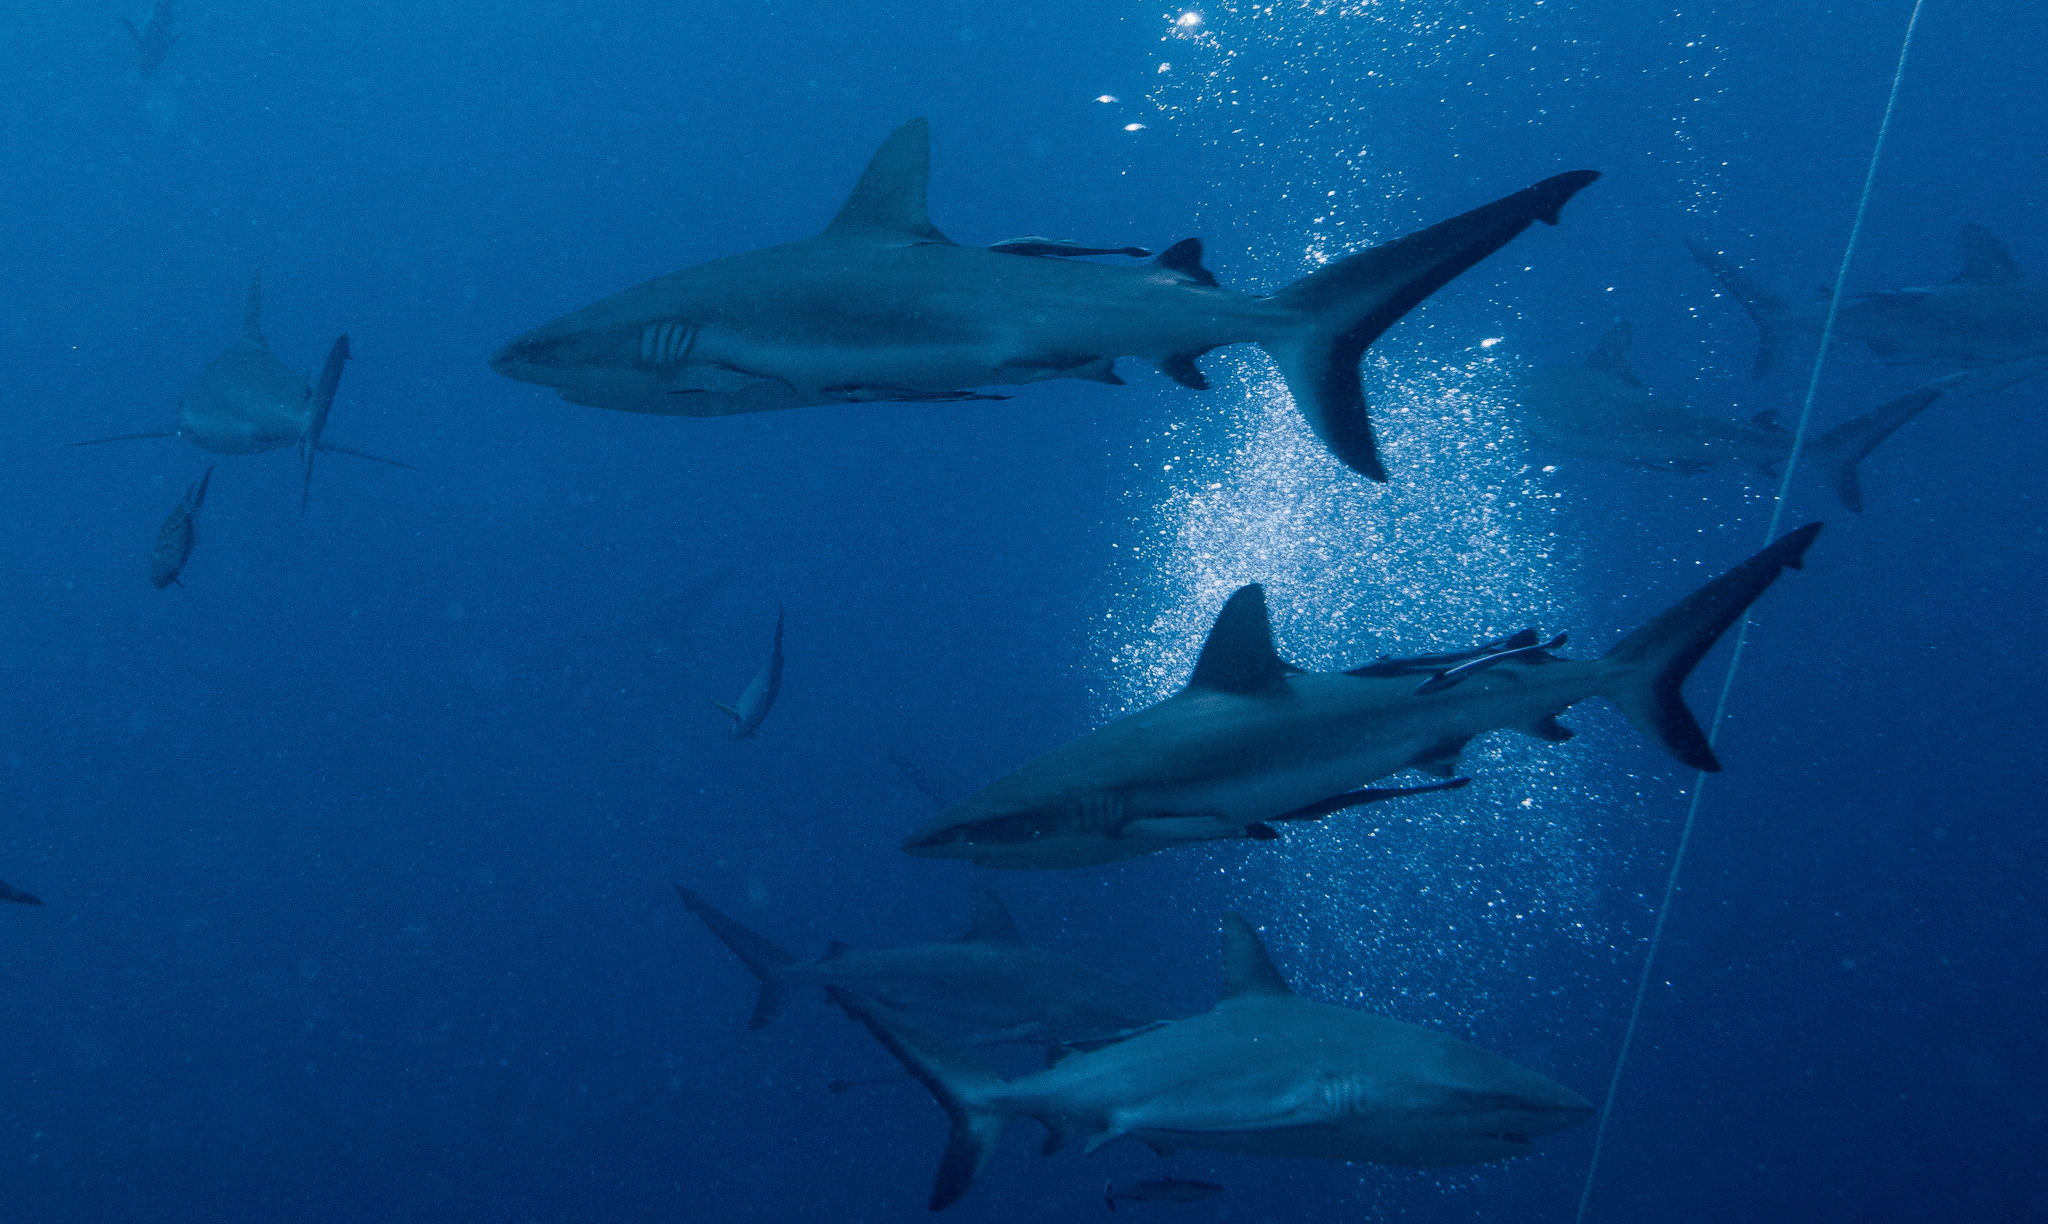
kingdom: Animalia
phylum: Chordata
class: Elasmobranchii
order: Carcharhiniformes
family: Carcharhinidae
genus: Carcharhinus
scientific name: Carcharhinus amblyrhynchos
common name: Grey reef shark
